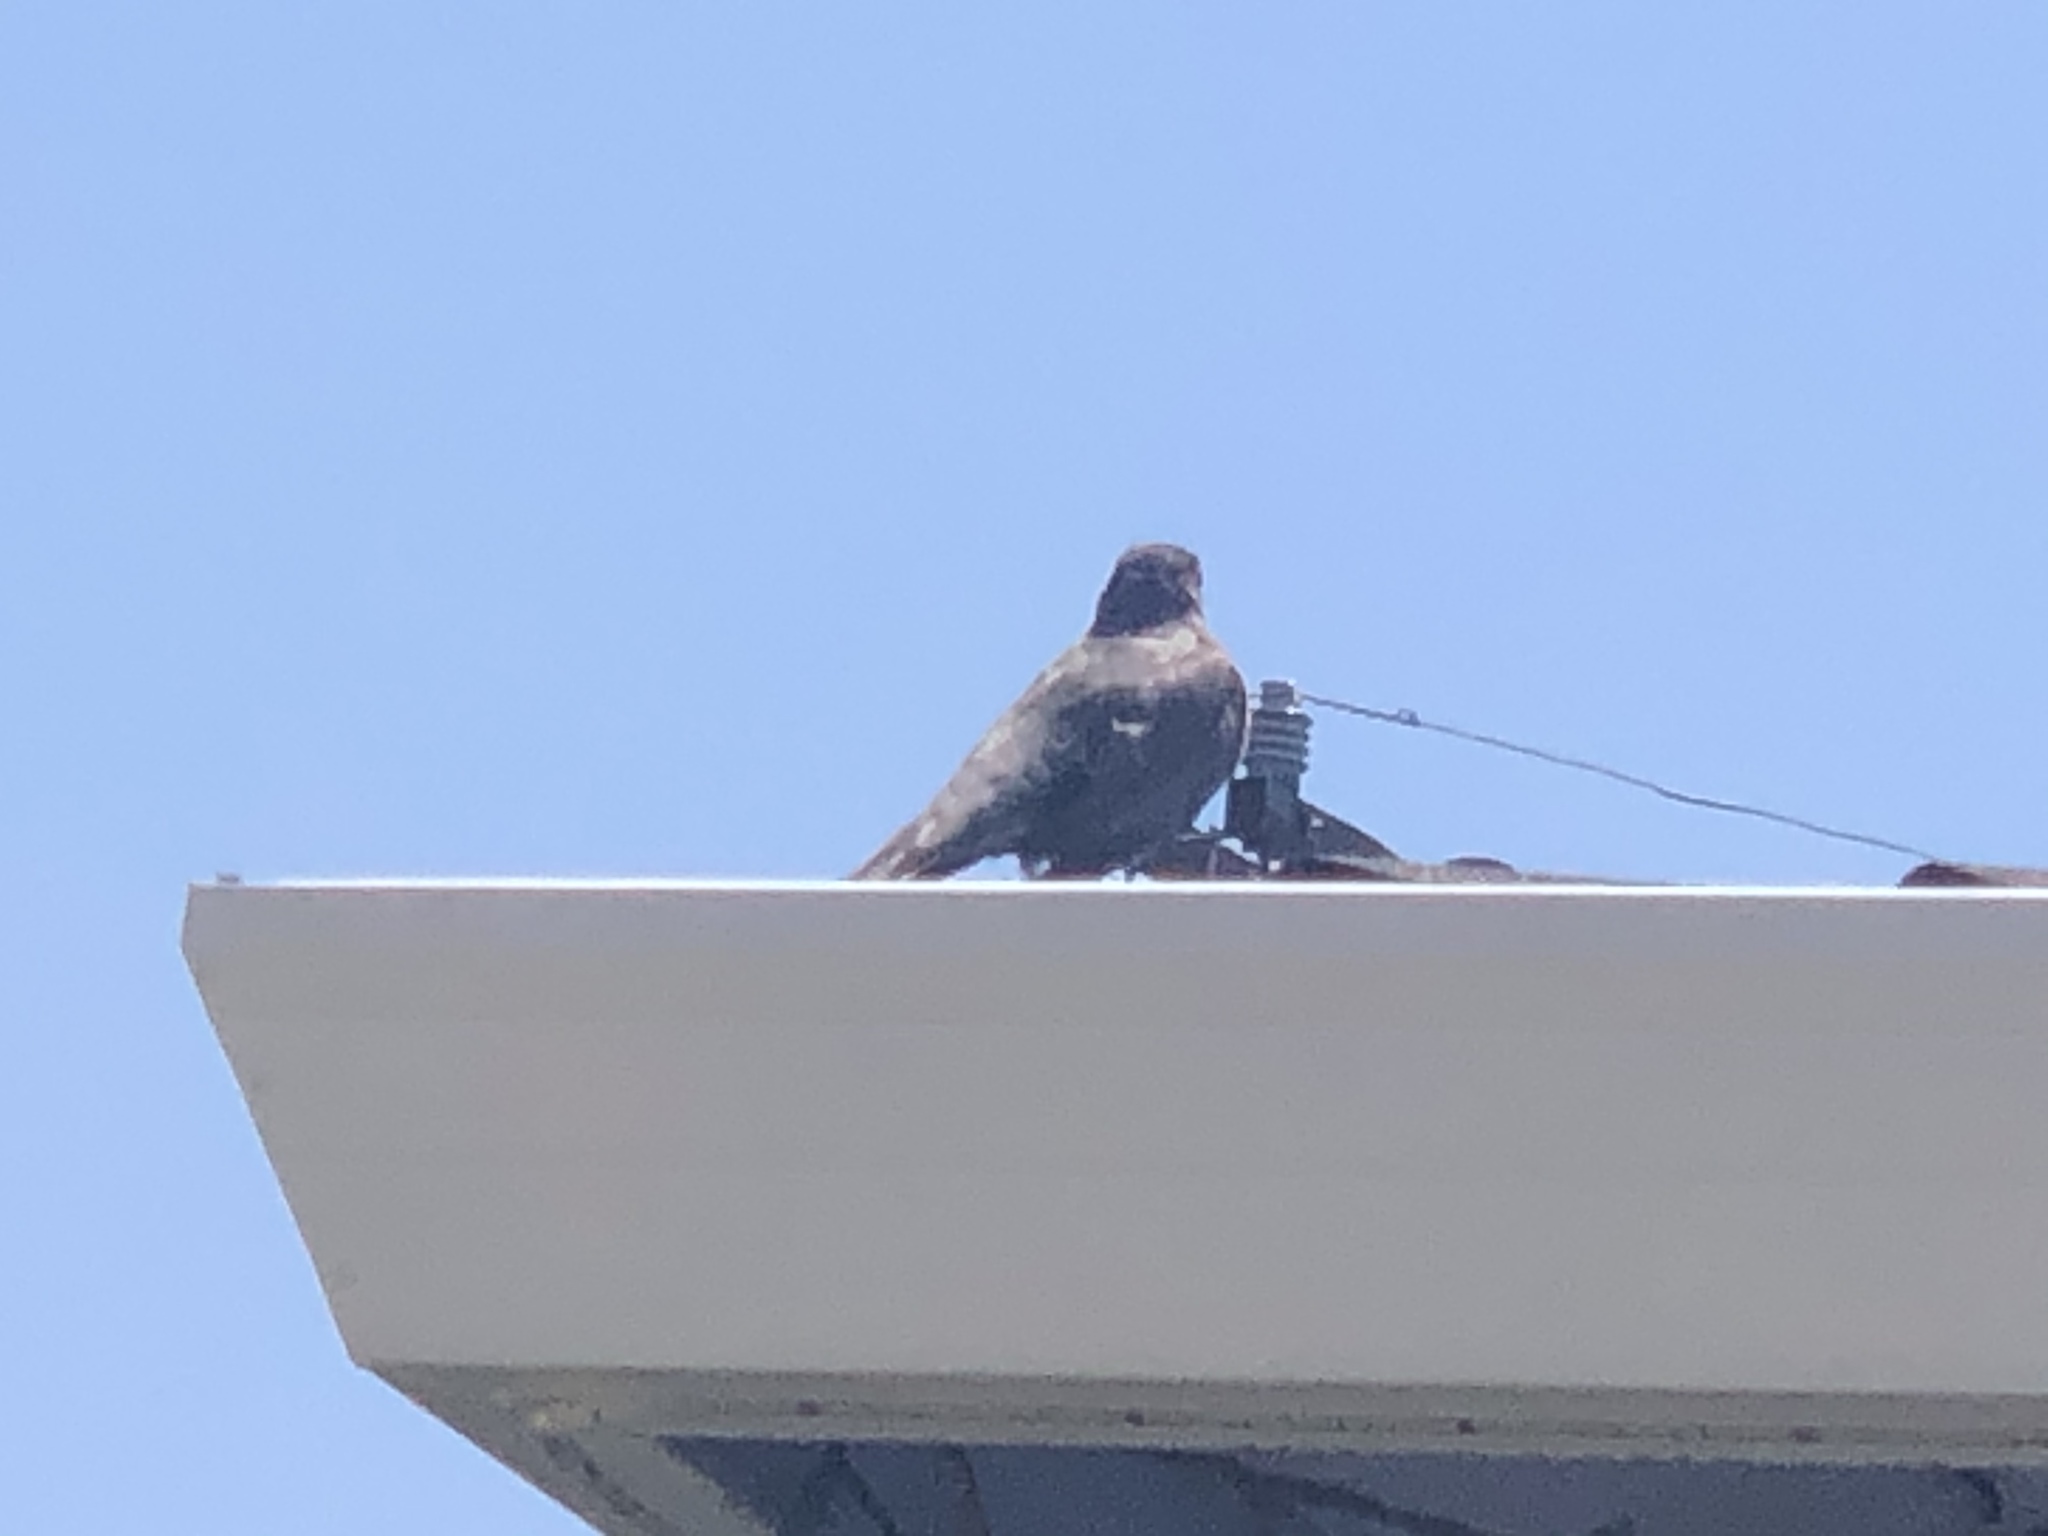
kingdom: Animalia
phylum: Chordata
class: Aves
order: Passeriformes
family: Turdidae
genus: Turdus
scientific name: Turdus migratorius
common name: American robin
